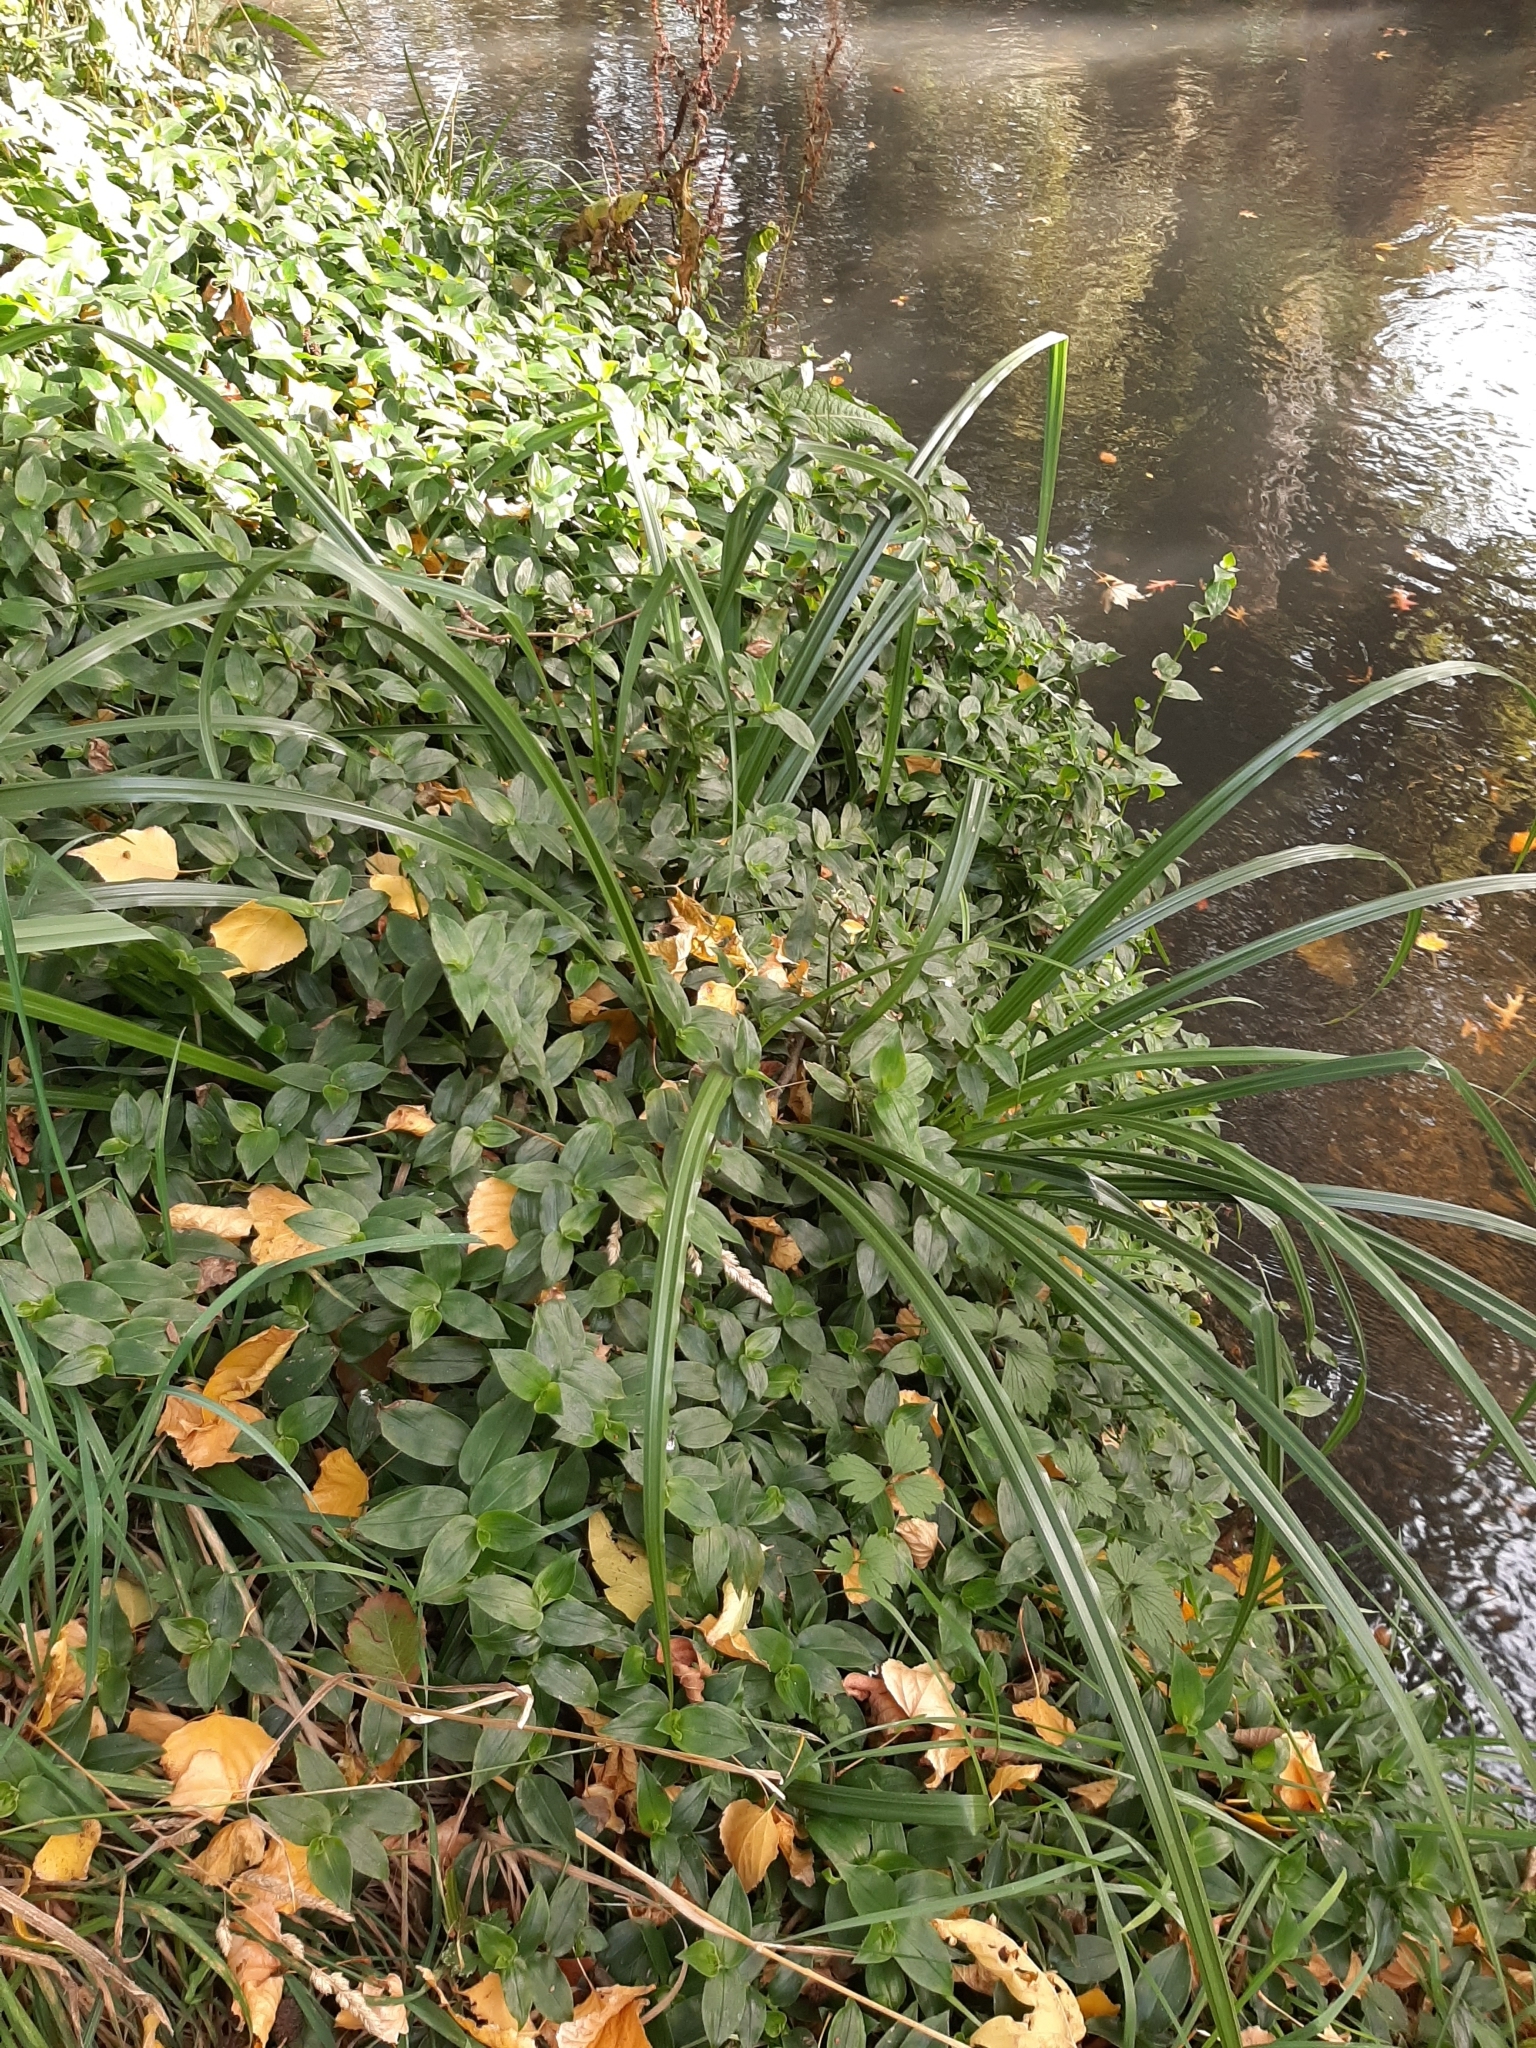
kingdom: Plantae
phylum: Tracheophyta
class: Liliopsida
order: Poales
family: Cyperaceae
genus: Carex
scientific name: Carex pendula
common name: Pendulous sedge
